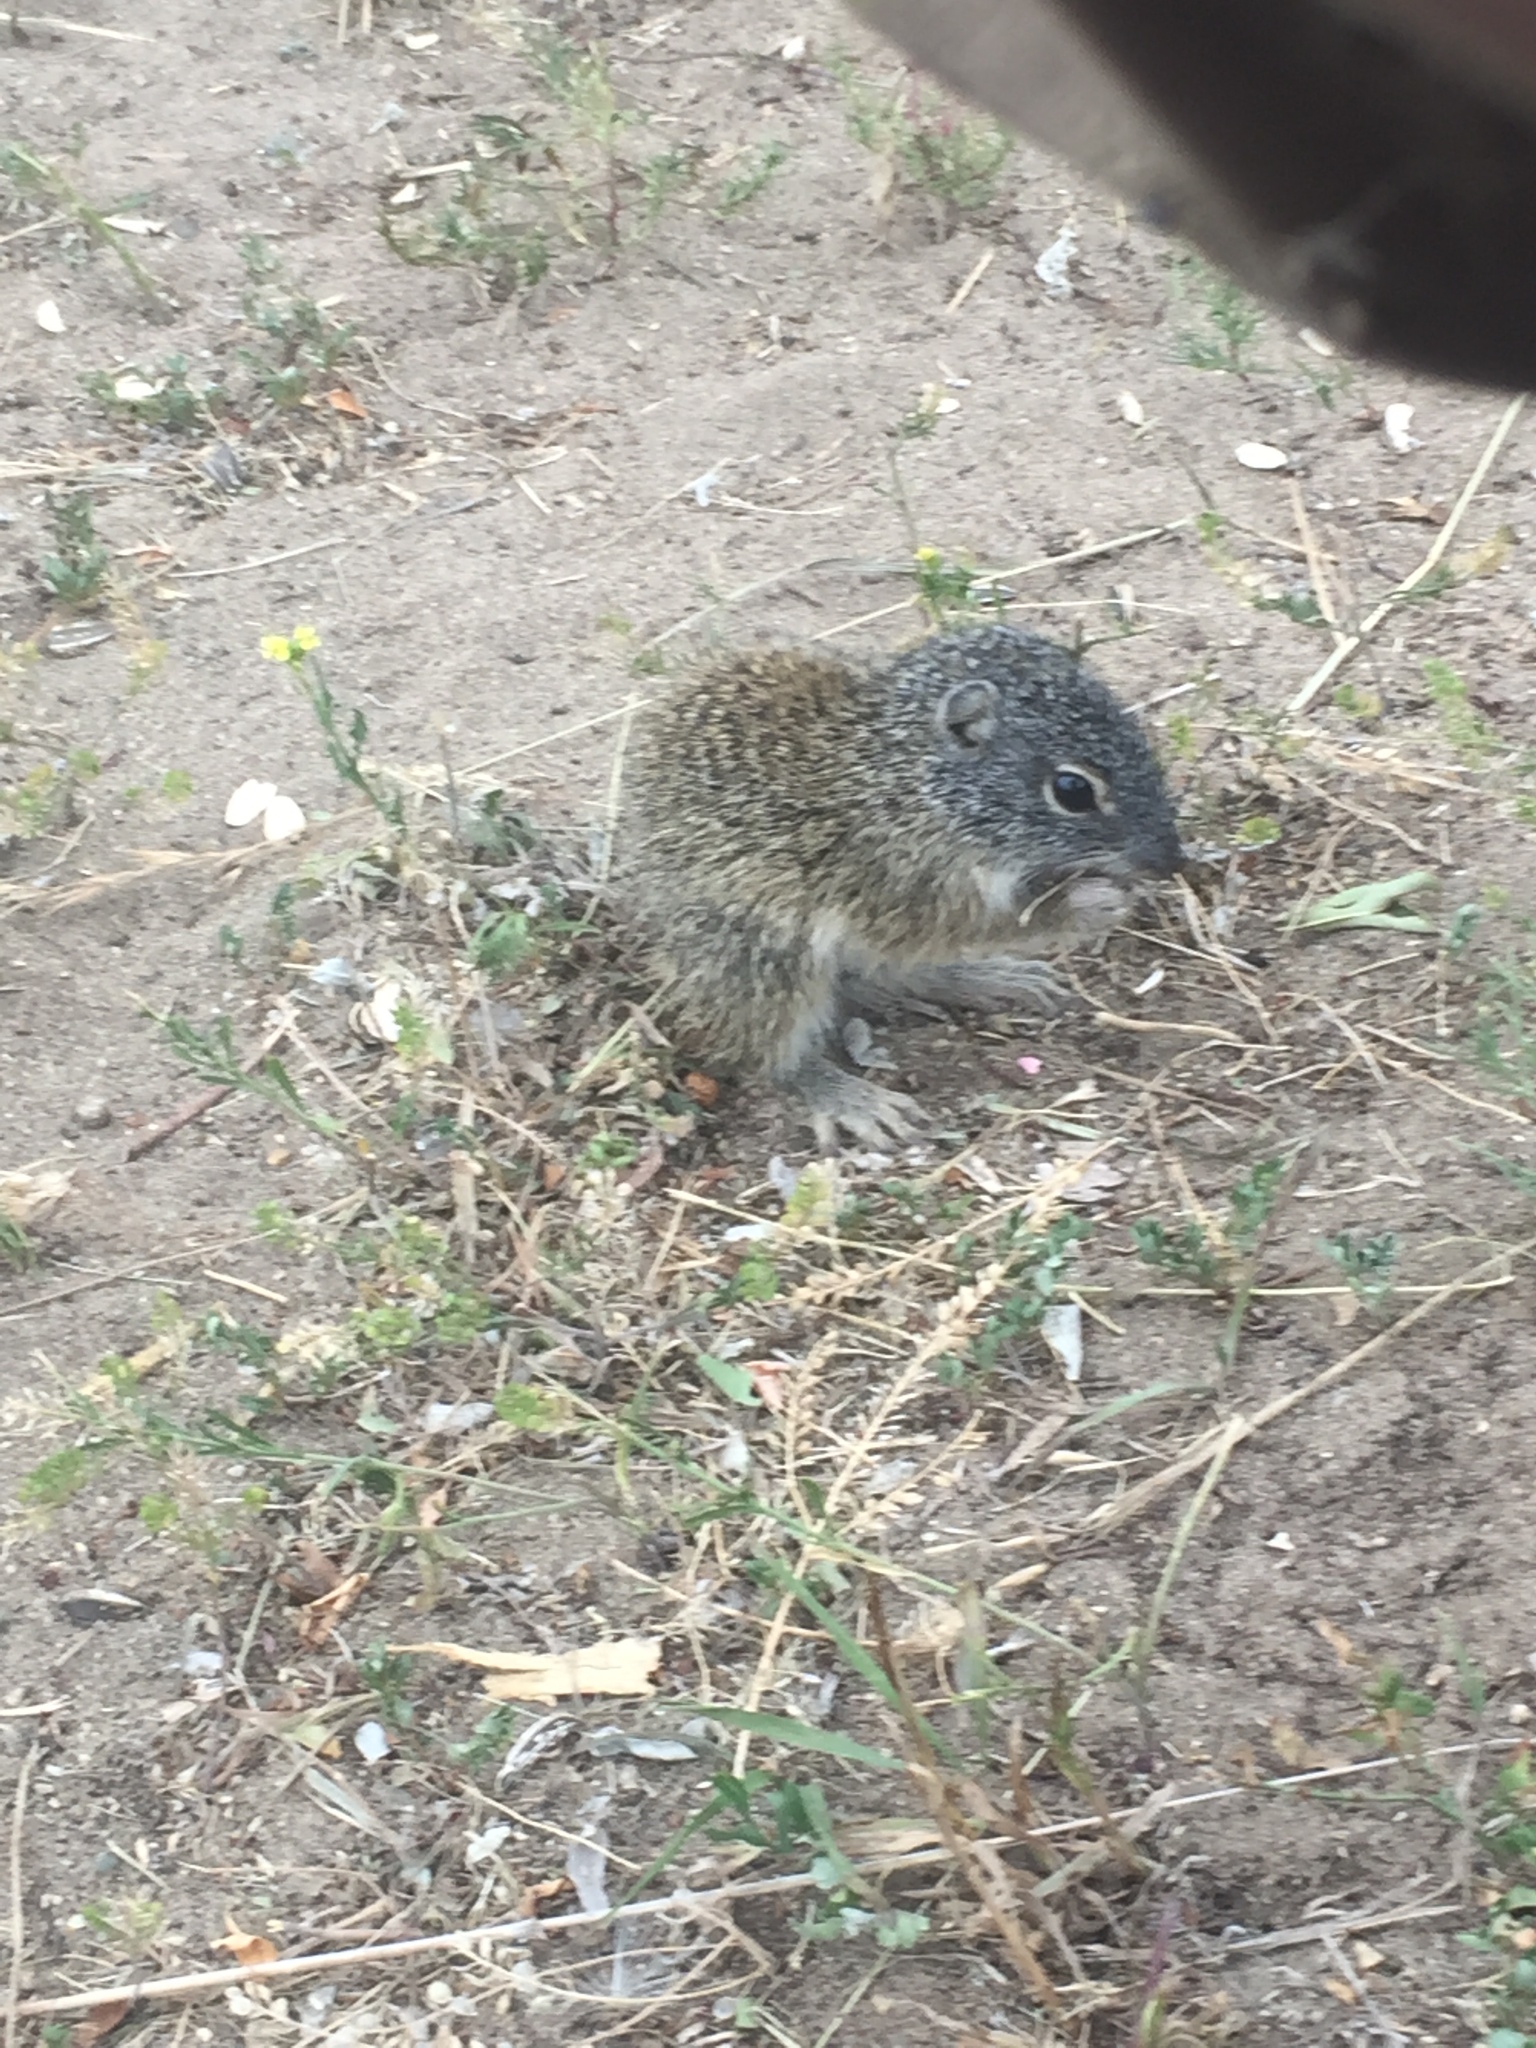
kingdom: Animalia
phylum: Chordata
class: Mammalia
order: Rodentia
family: Sciuridae
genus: Poliocitellus
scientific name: Poliocitellus franklinii
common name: Franklin's ground squirrel
